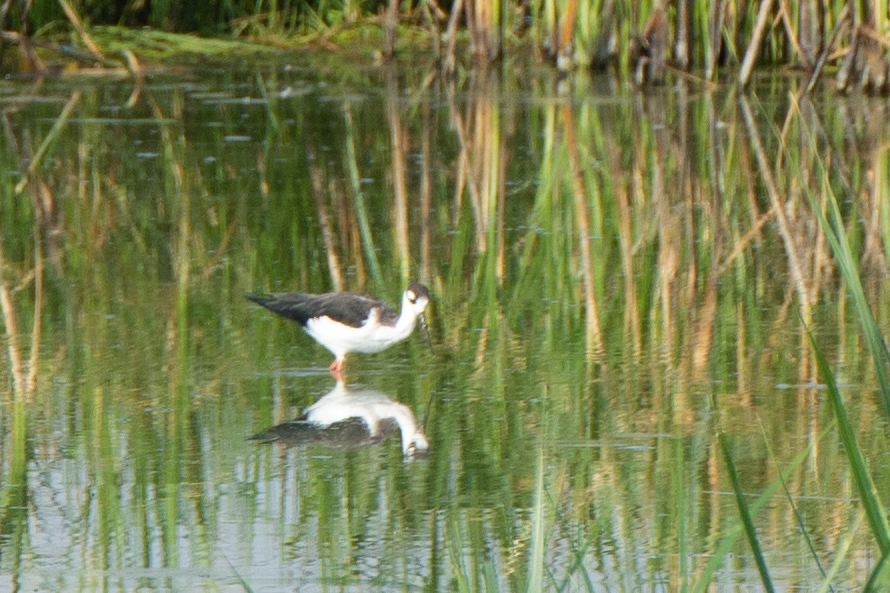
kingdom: Animalia
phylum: Chordata
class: Aves
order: Charadriiformes
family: Recurvirostridae
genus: Himantopus
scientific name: Himantopus mexicanus
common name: Black-necked stilt
